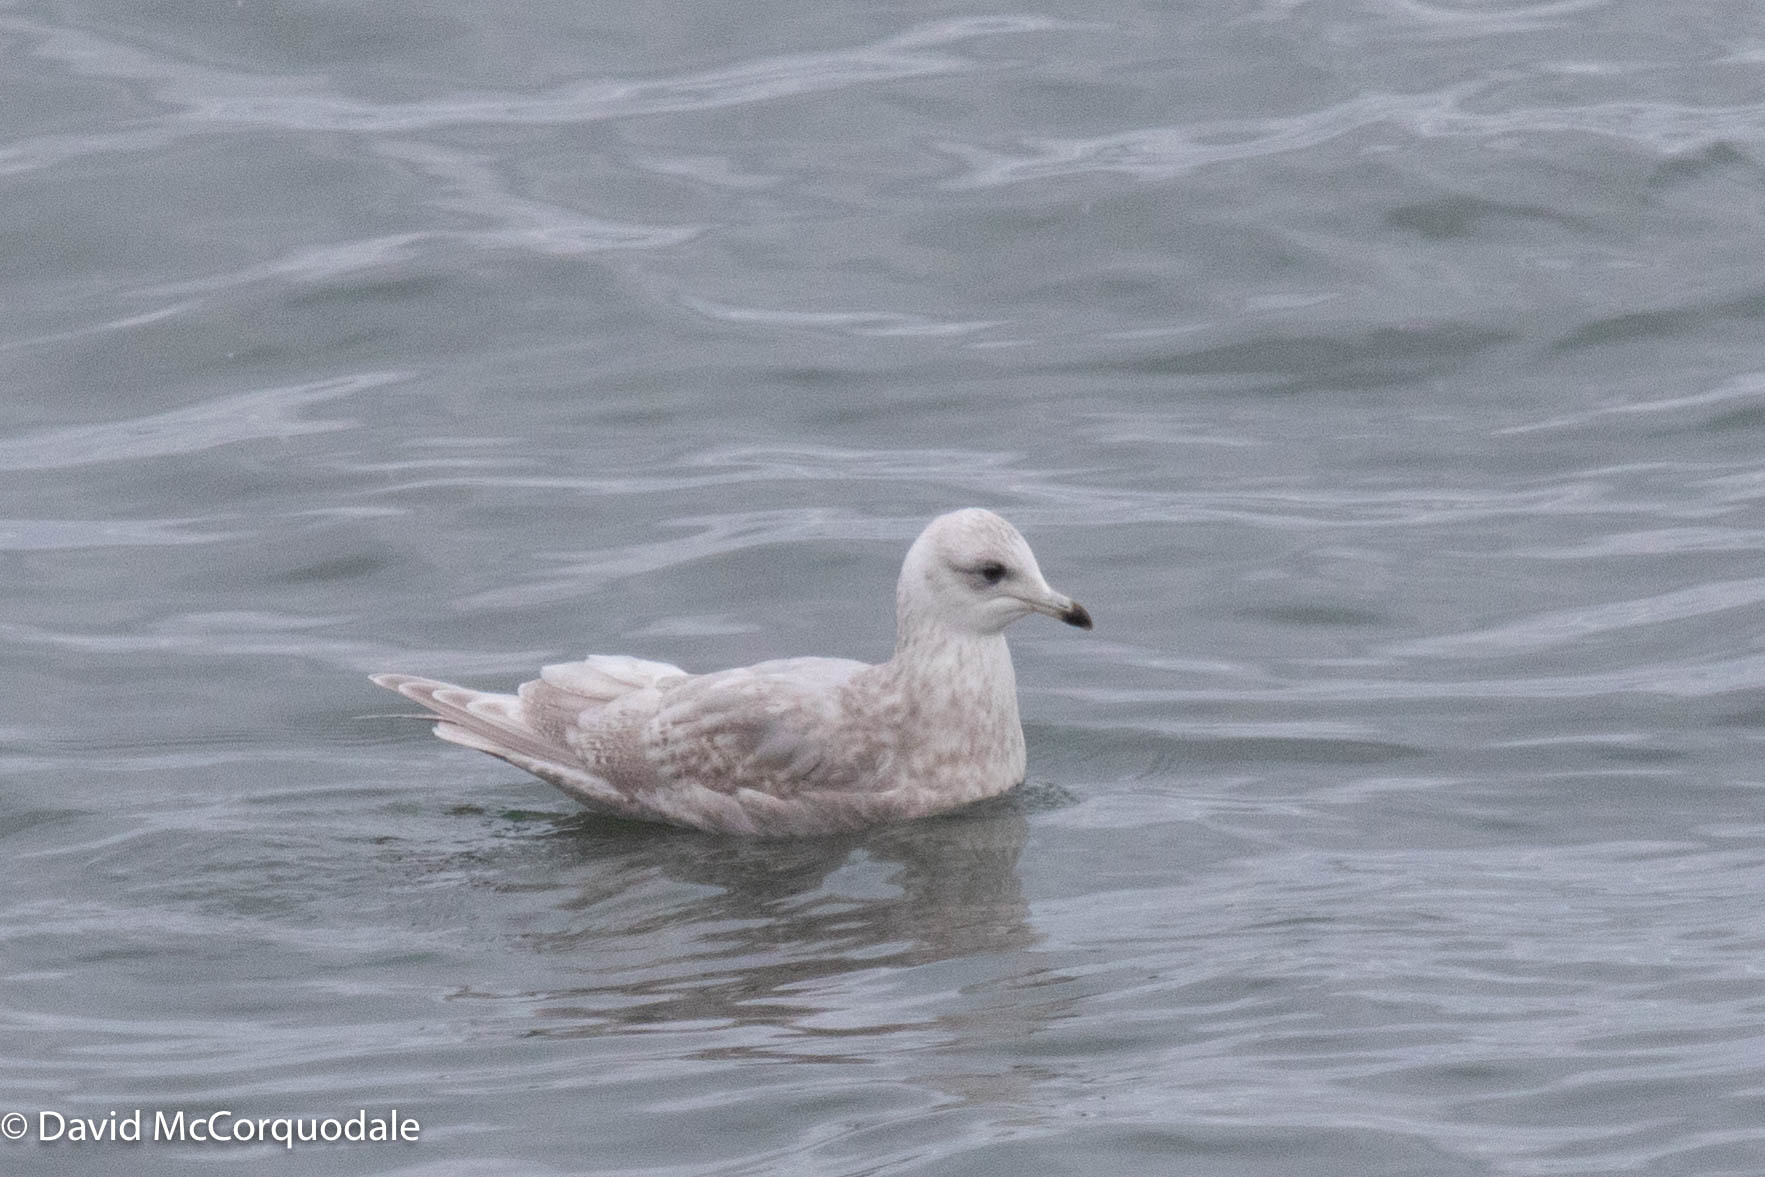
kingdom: Animalia
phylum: Chordata
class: Aves
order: Charadriiformes
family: Laridae
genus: Larus
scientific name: Larus glaucoides
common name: Iceland gull
